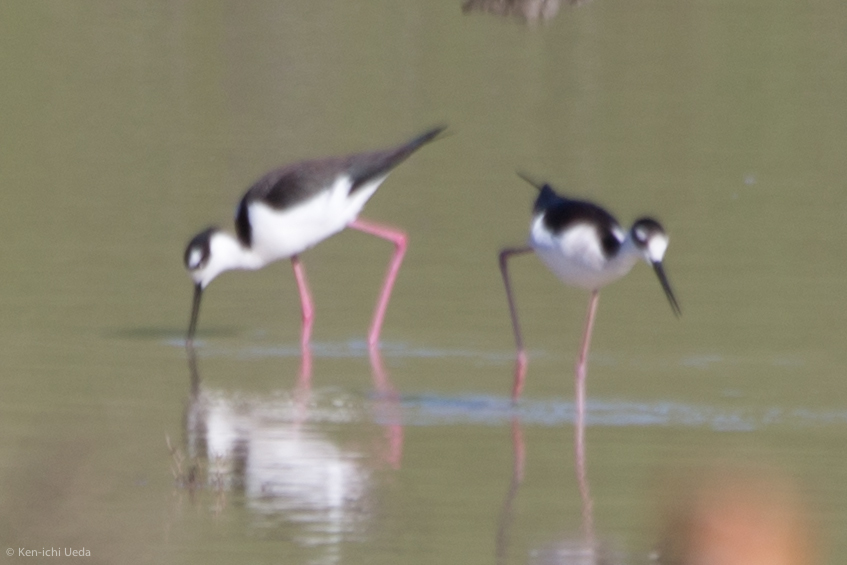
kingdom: Animalia
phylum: Chordata
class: Aves
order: Charadriiformes
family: Recurvirostridae
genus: Himantopus
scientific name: Himantopus mexicanus
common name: Black-necked stilt
